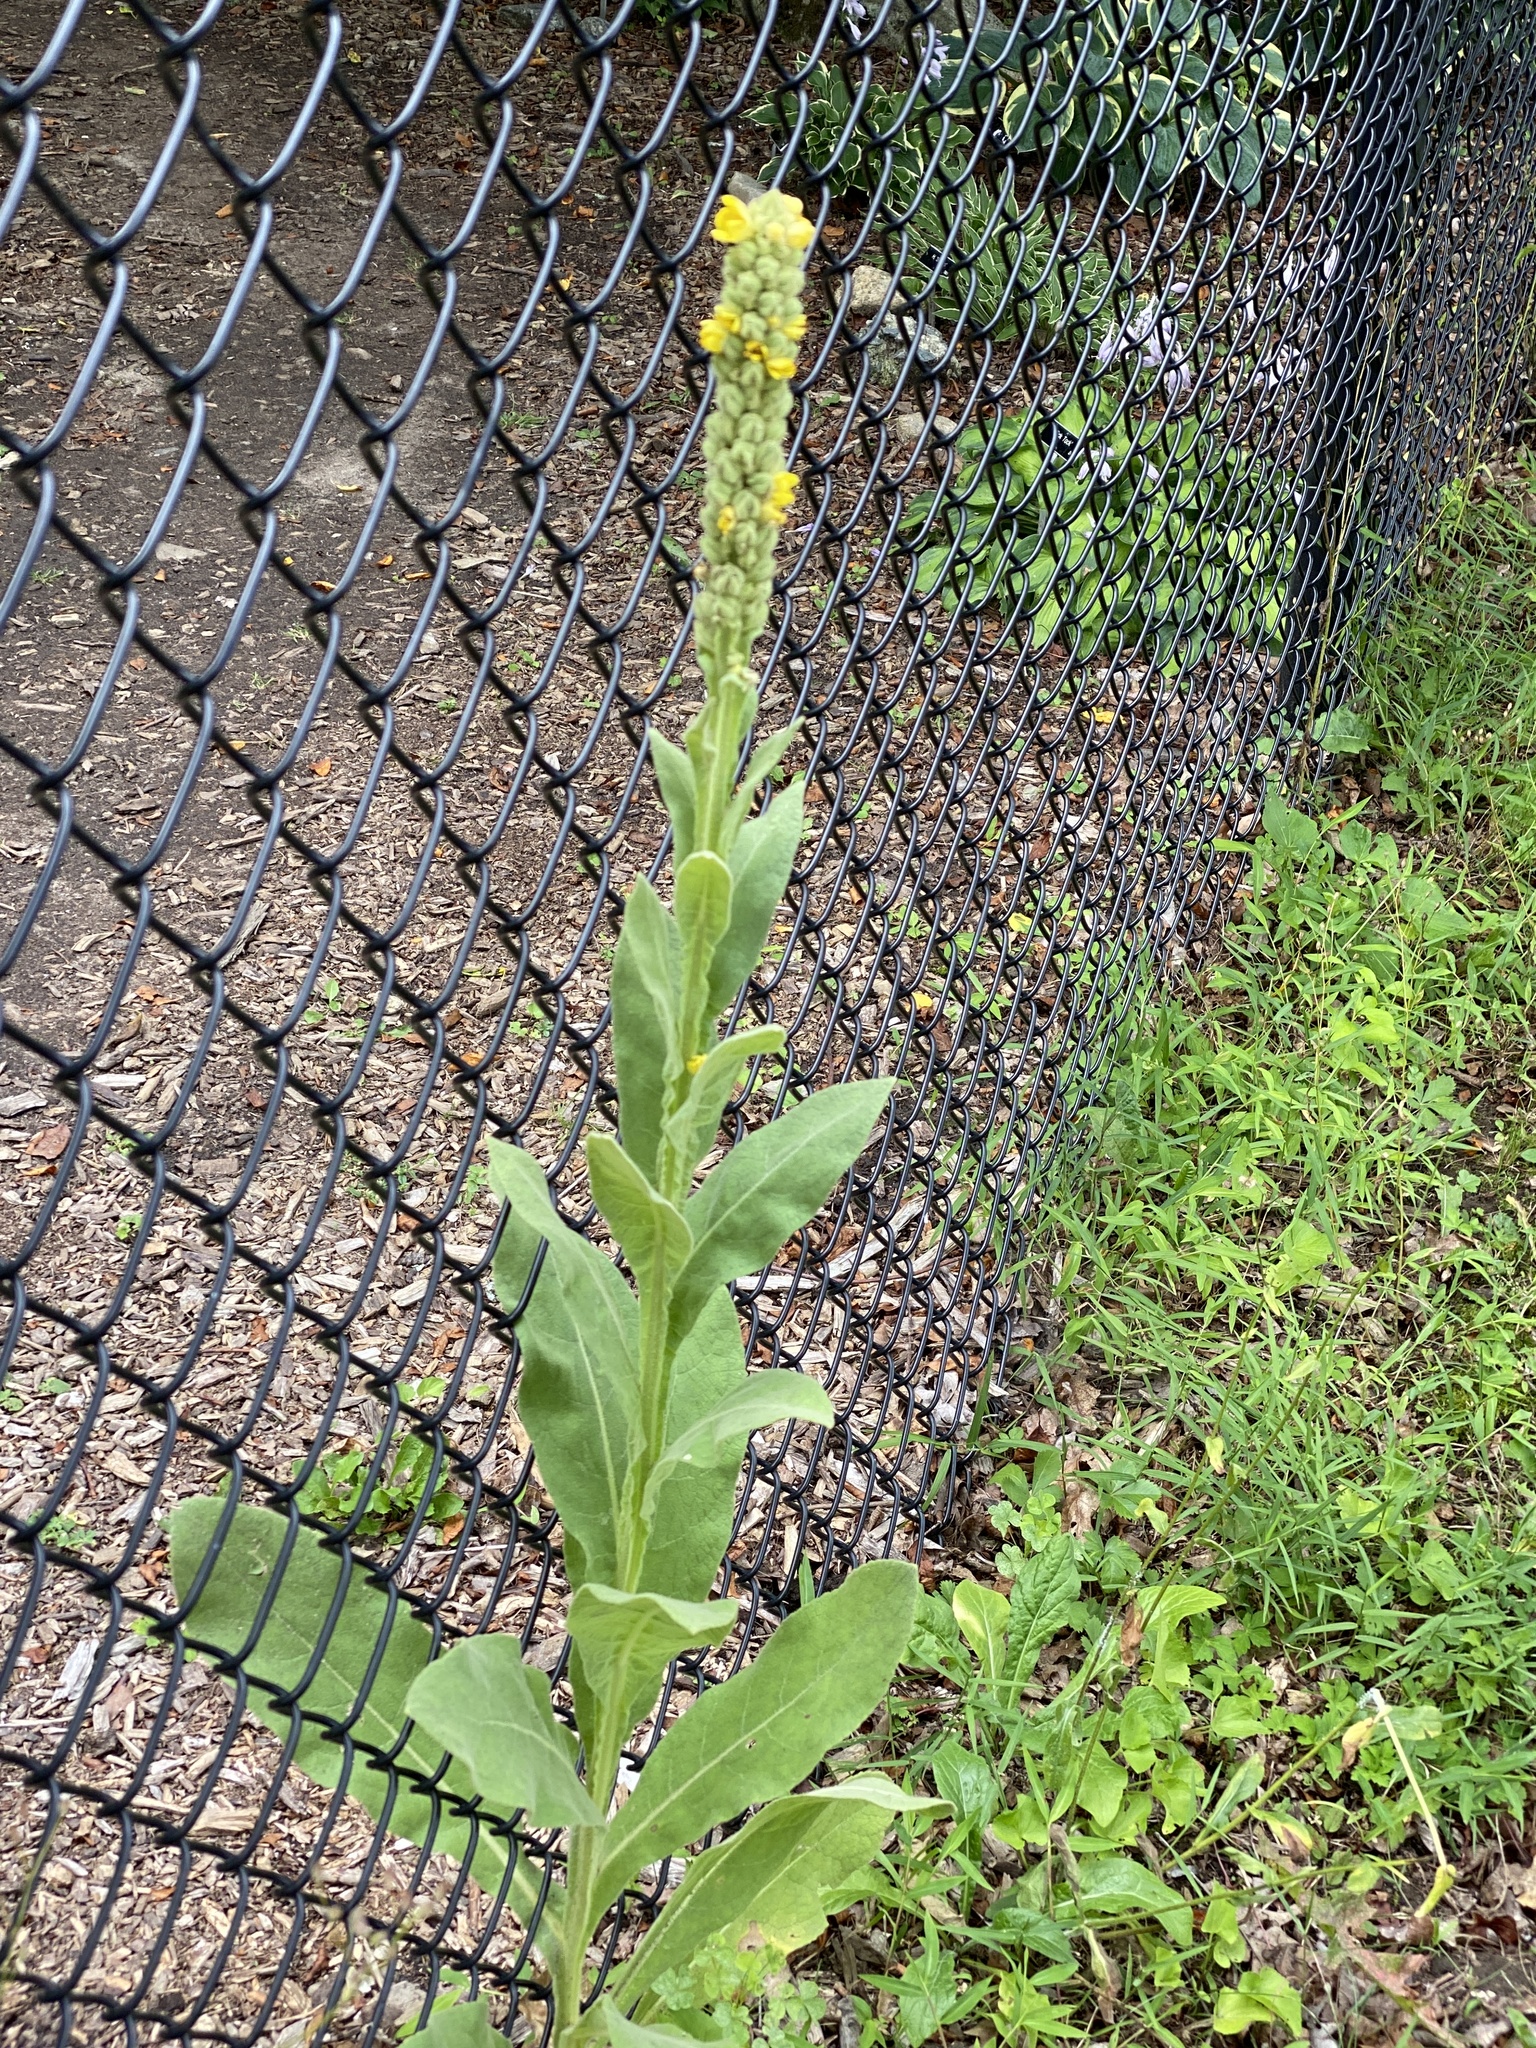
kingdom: Plantae
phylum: Tracheophyta
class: Magnoliopsida
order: Lamiales
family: Scrophulariaceae
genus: Verbascum
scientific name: Verbascum thapsus
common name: Common mullein
